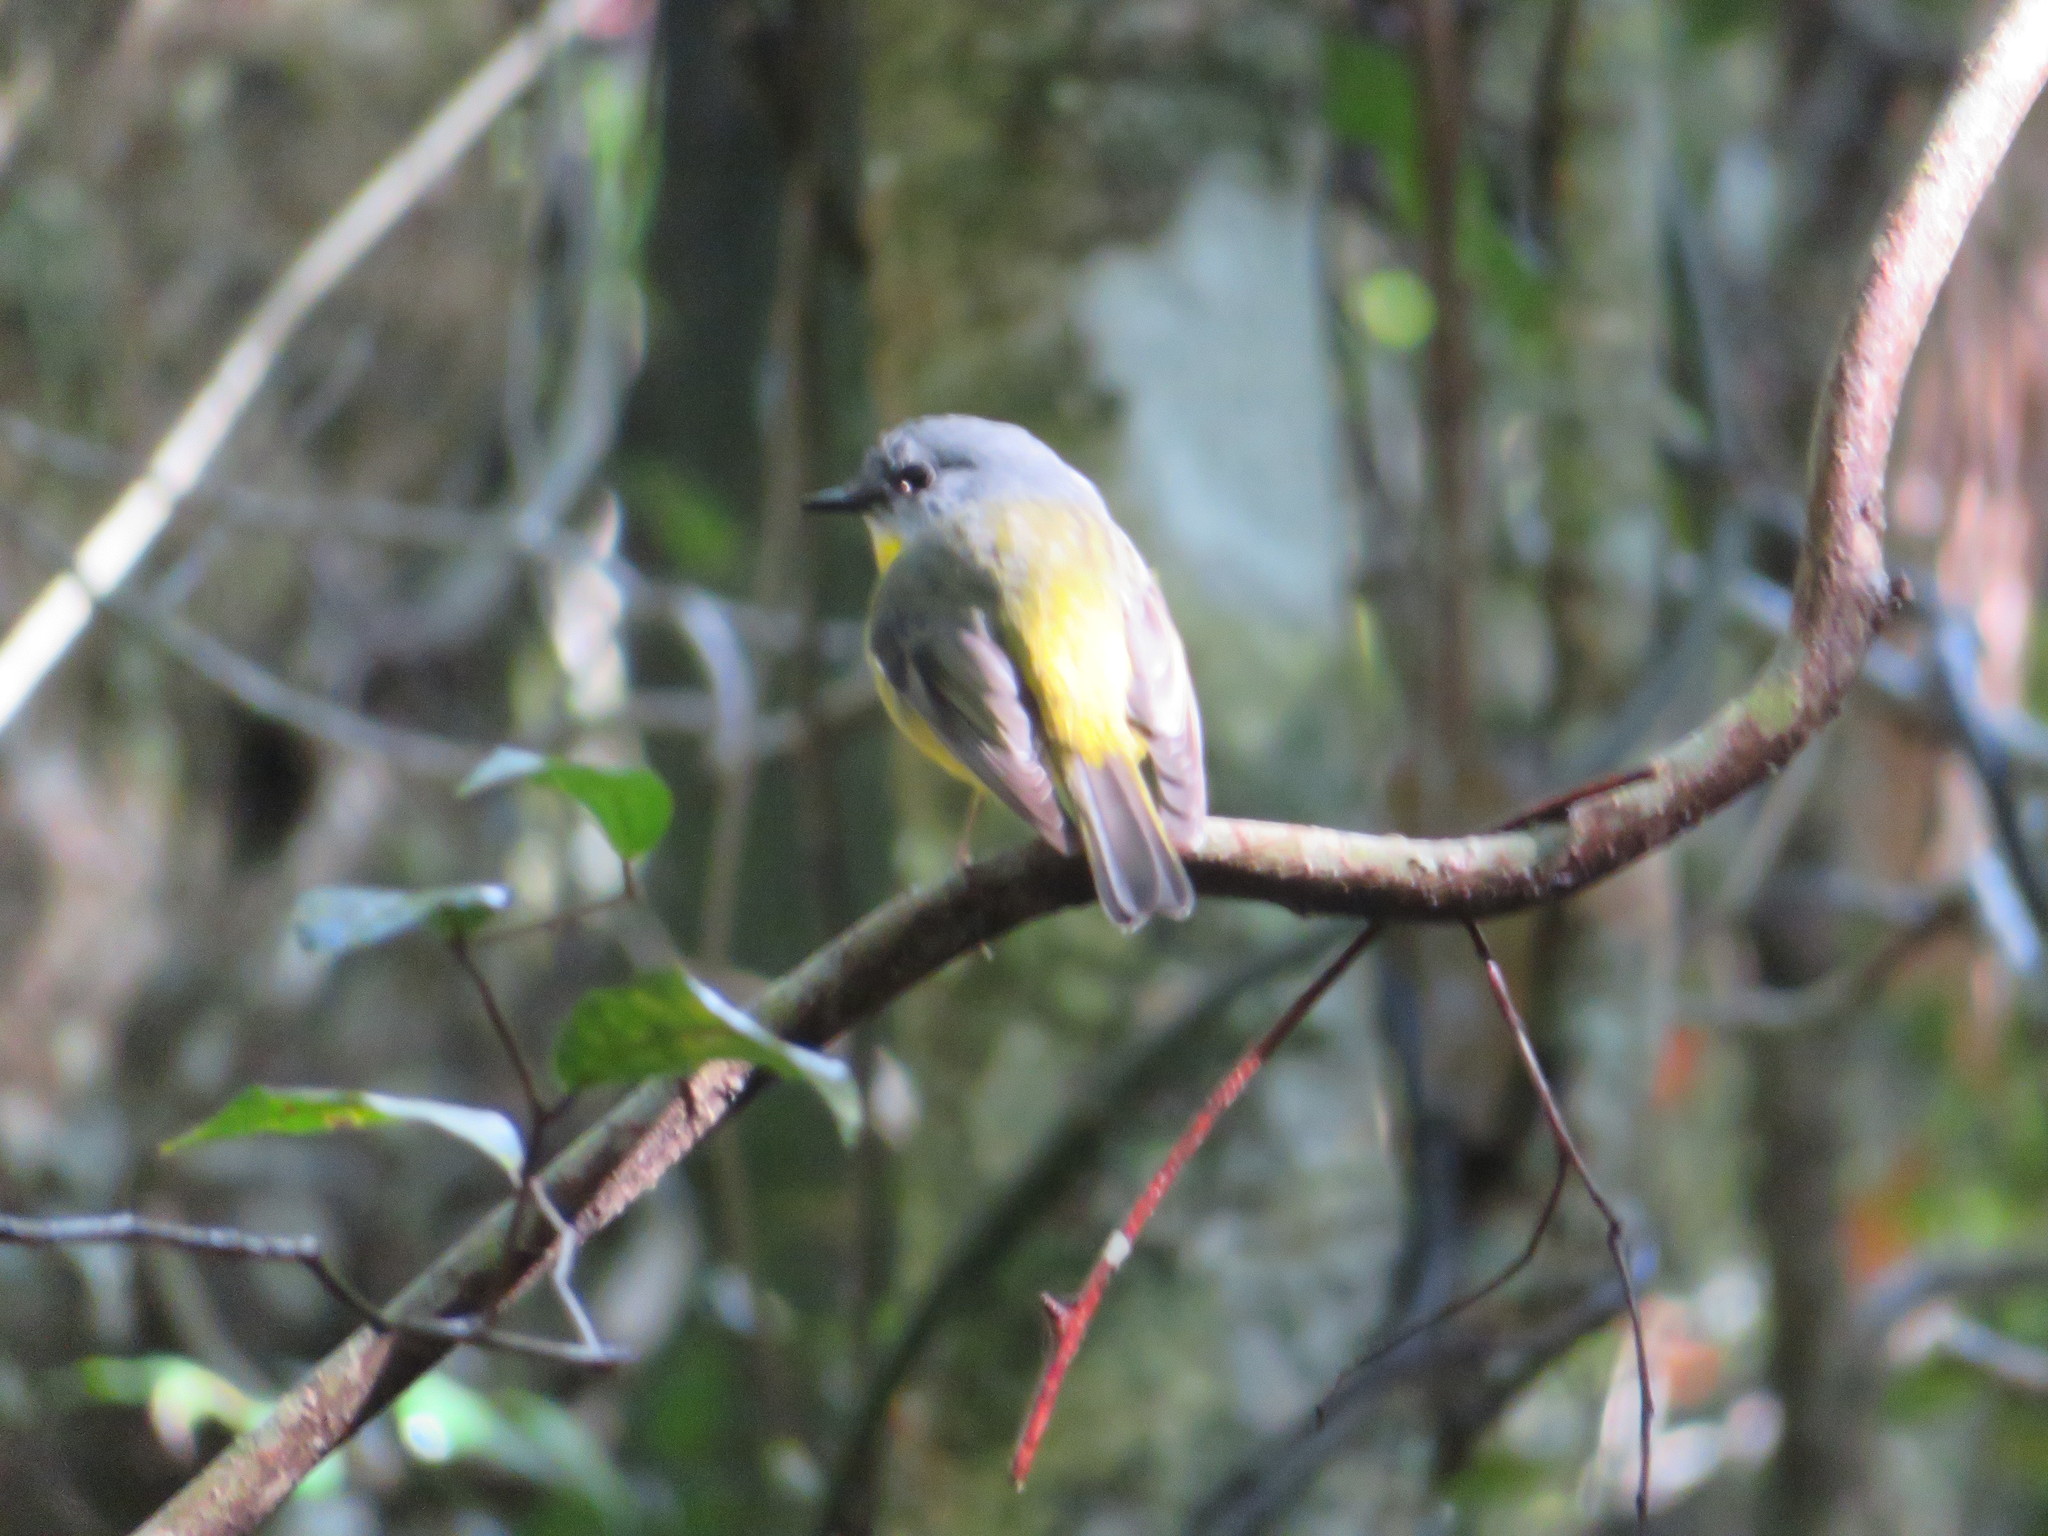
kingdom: Animalia
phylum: Chordata
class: Aves
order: Passeriformes
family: Petroicidae
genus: Eopsaltria
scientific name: Eopsaltria australis
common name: Eastern yellow robin
